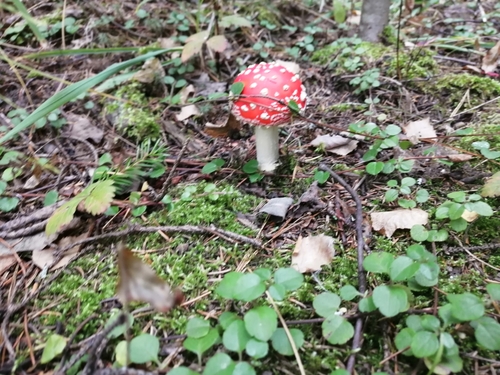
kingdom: Fungi
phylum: Basidiomycota
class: Agaricomycetes
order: Agaricales
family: Amanitaceae
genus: Amanita
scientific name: Amanita muscaria
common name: Fly agaric
